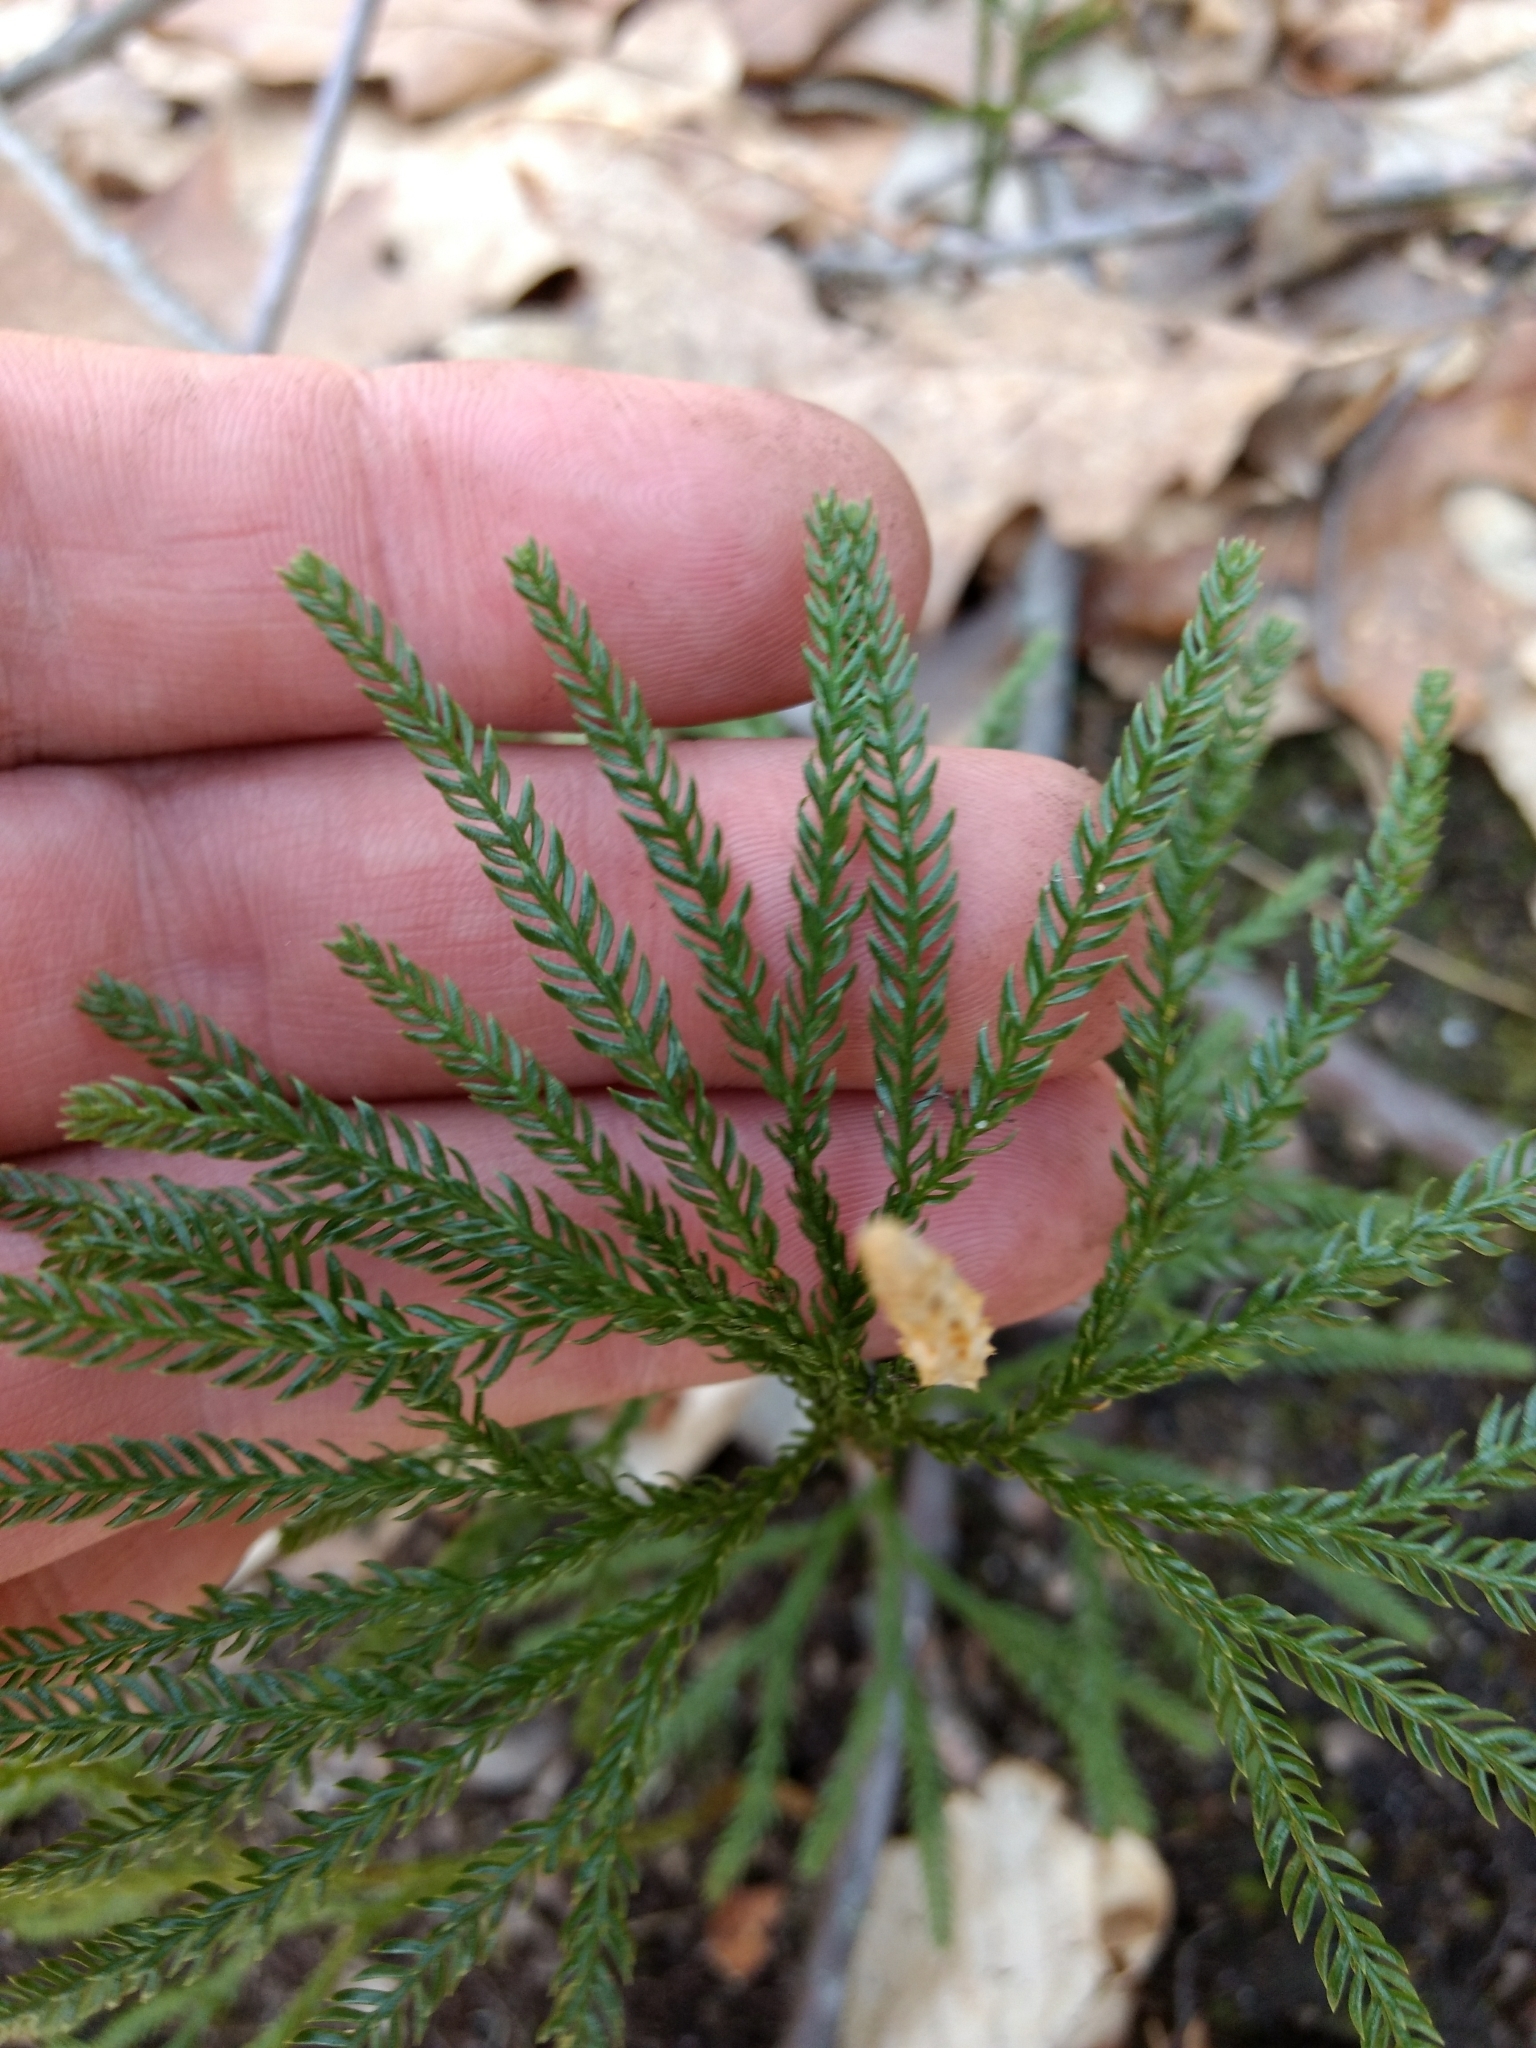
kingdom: Plantae
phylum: Tracheophyta
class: Lycopodiopsida
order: Lycopodiales
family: Lycopodiaceae
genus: Dendrolycopodium
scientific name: Dendrolycopodium obscurum
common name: Common ground-pine
